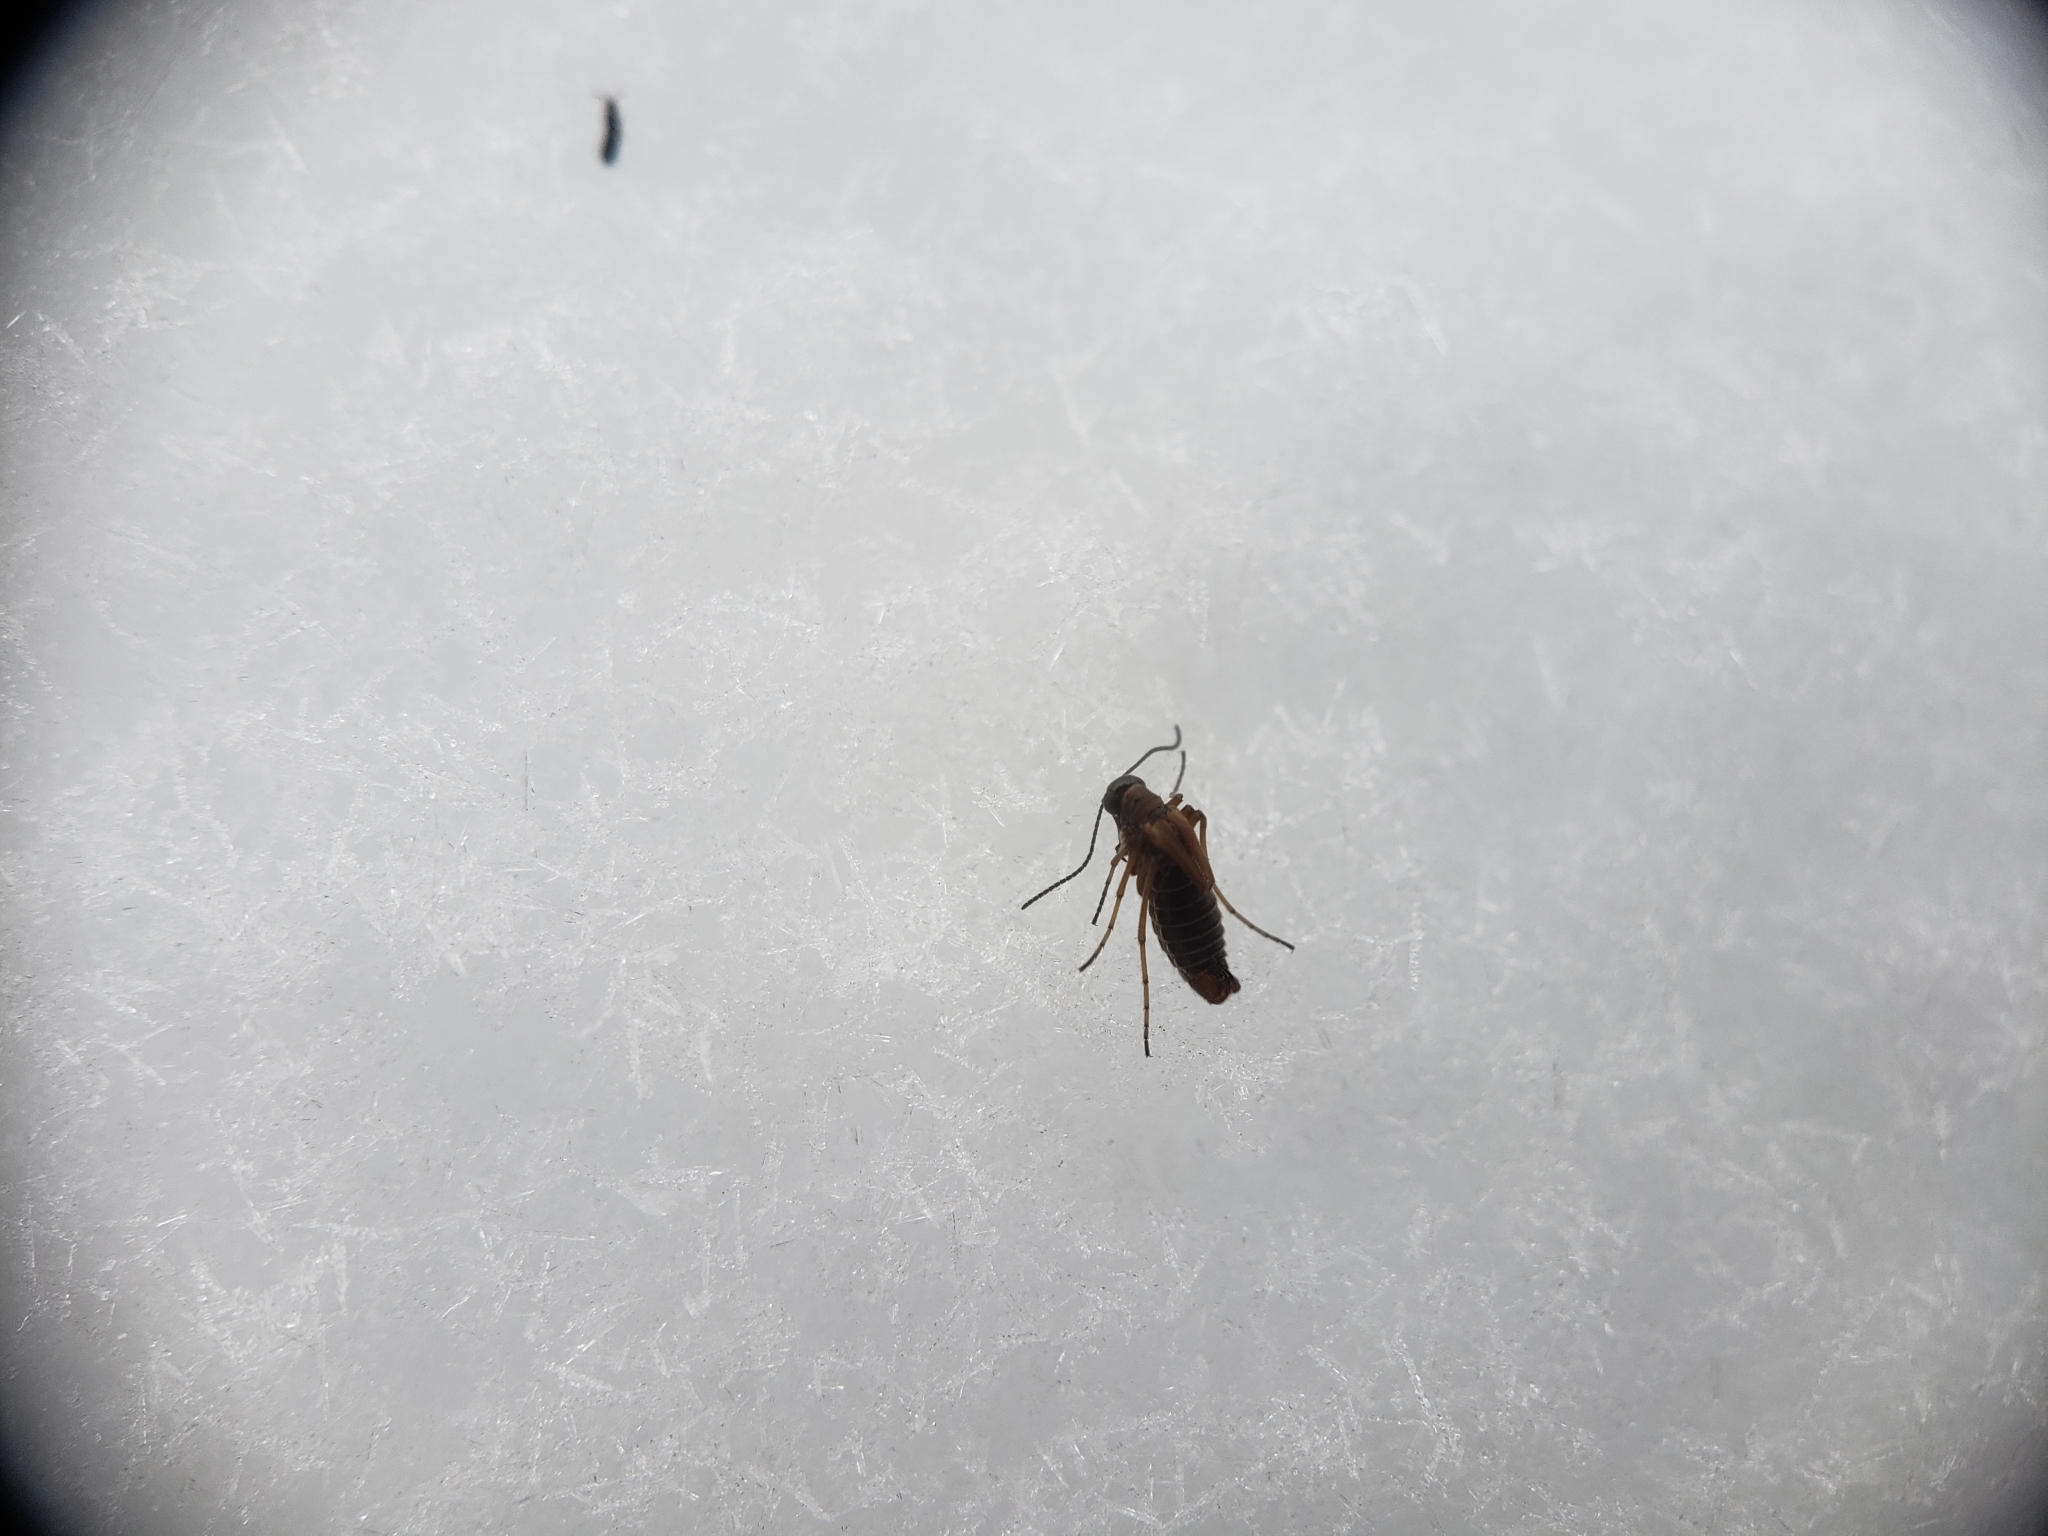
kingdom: Animalia
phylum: Arthropoda
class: Insecta
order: Mecoptera
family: Boreidae
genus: Boreus
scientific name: Boreus nivoriundus
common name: Snow-born boreus
